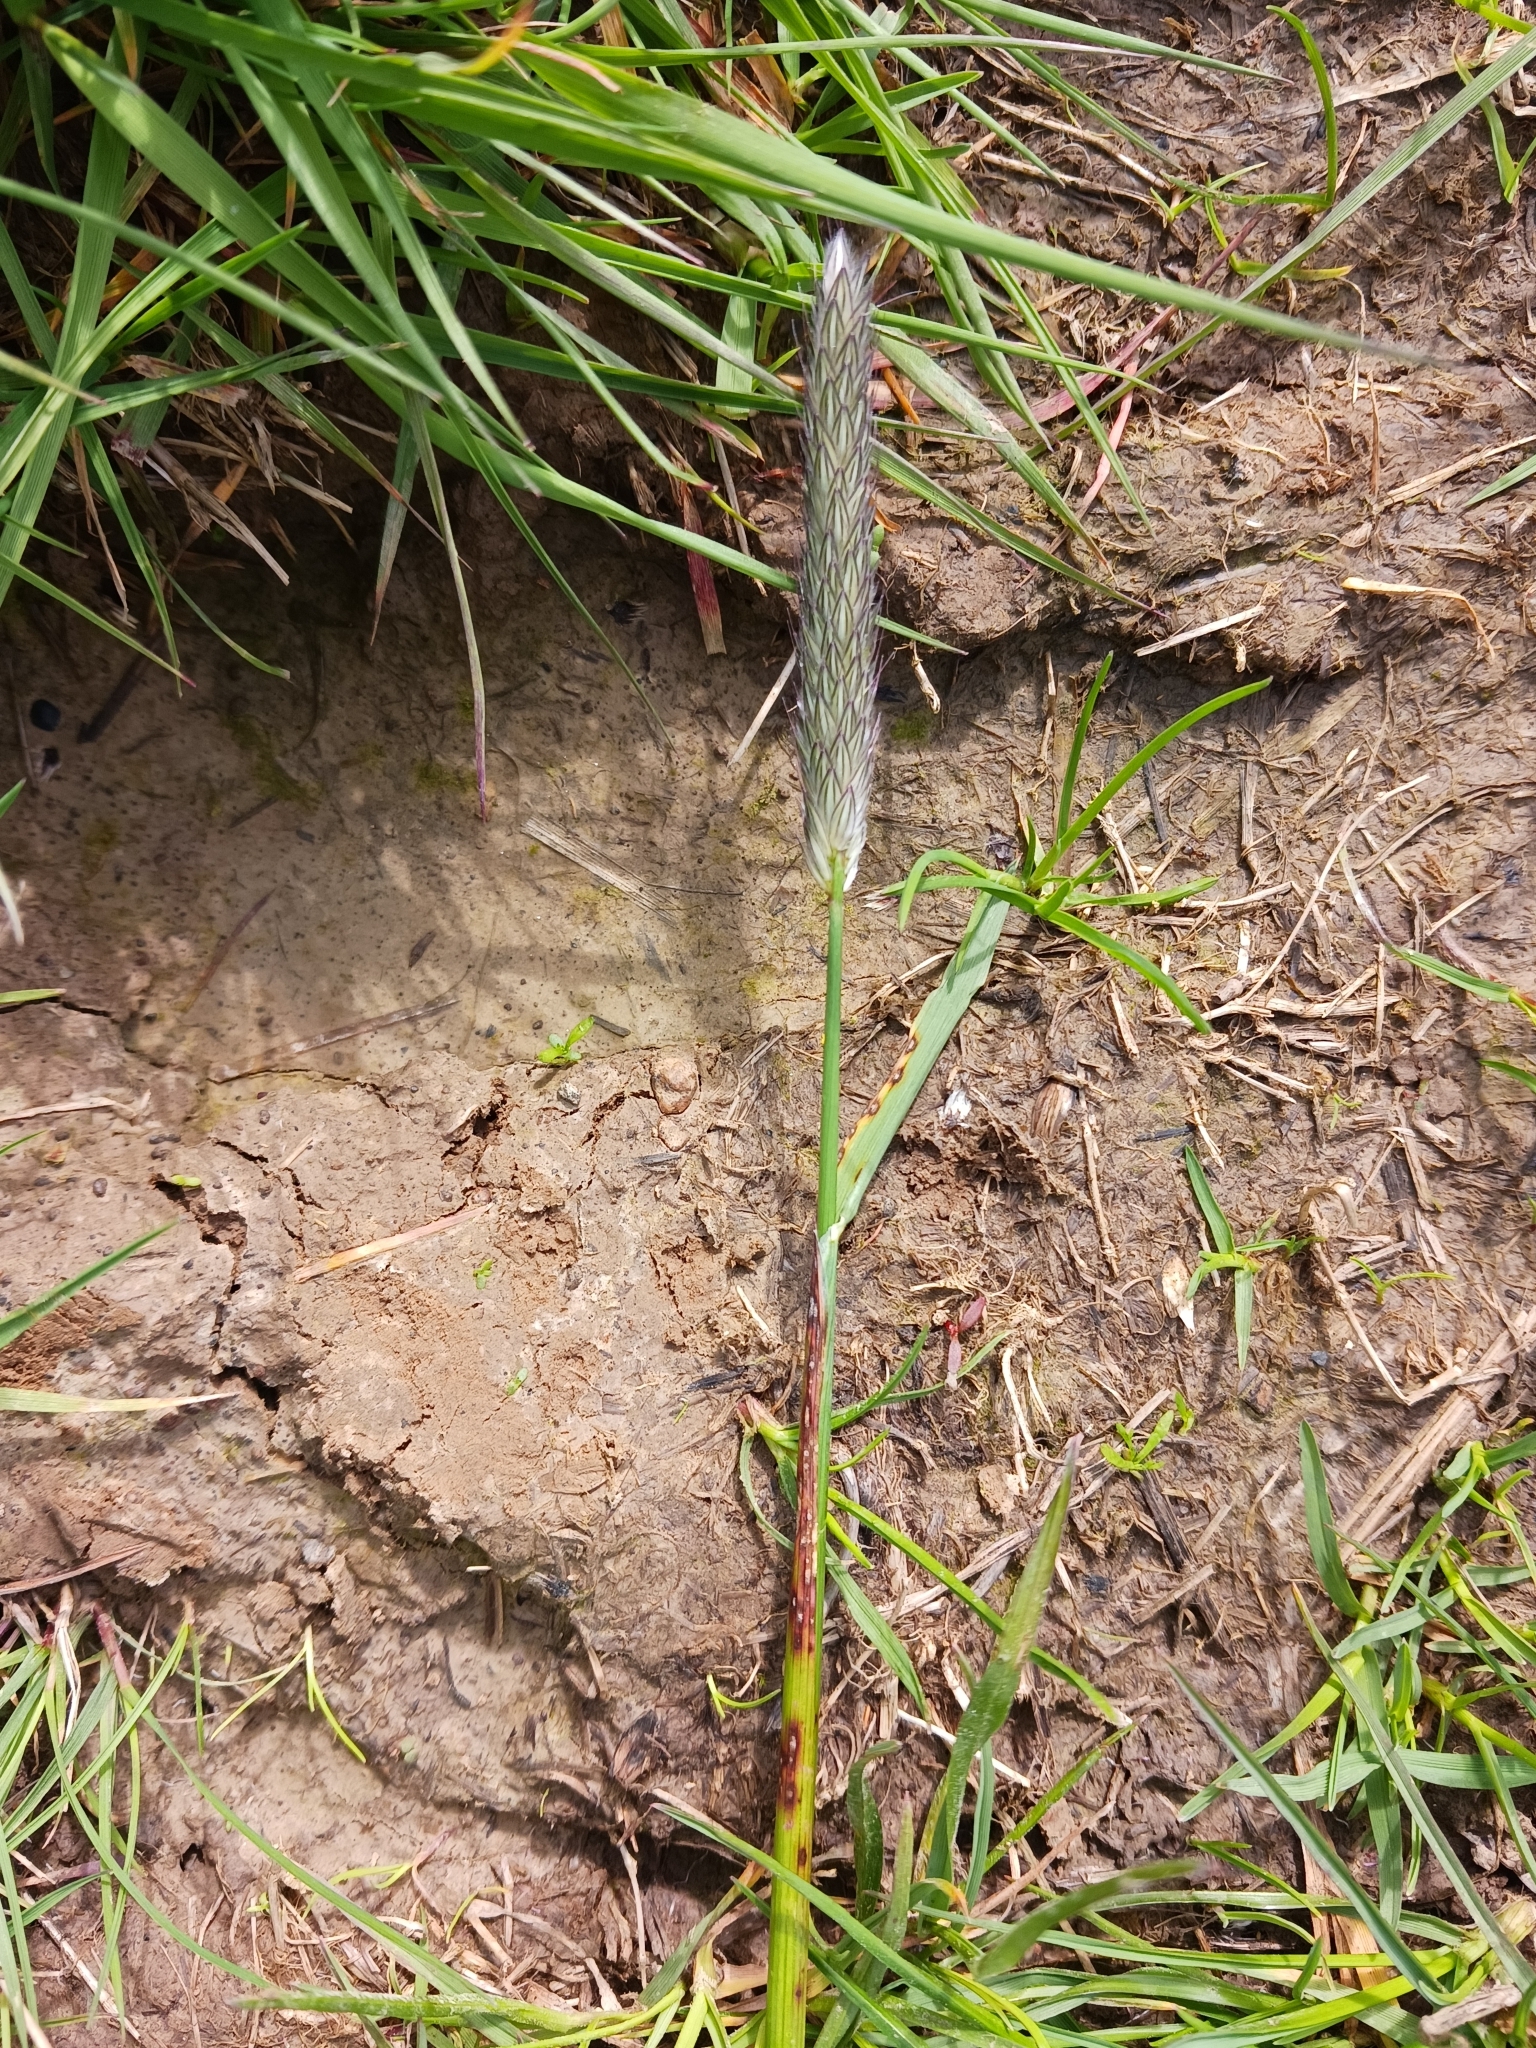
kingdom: Plantae
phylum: Tracheophyta
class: Liliopsida
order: Poales
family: Poaceae
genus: Alopecurus
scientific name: Alopecurus pratensis
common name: Meadow foxtail
